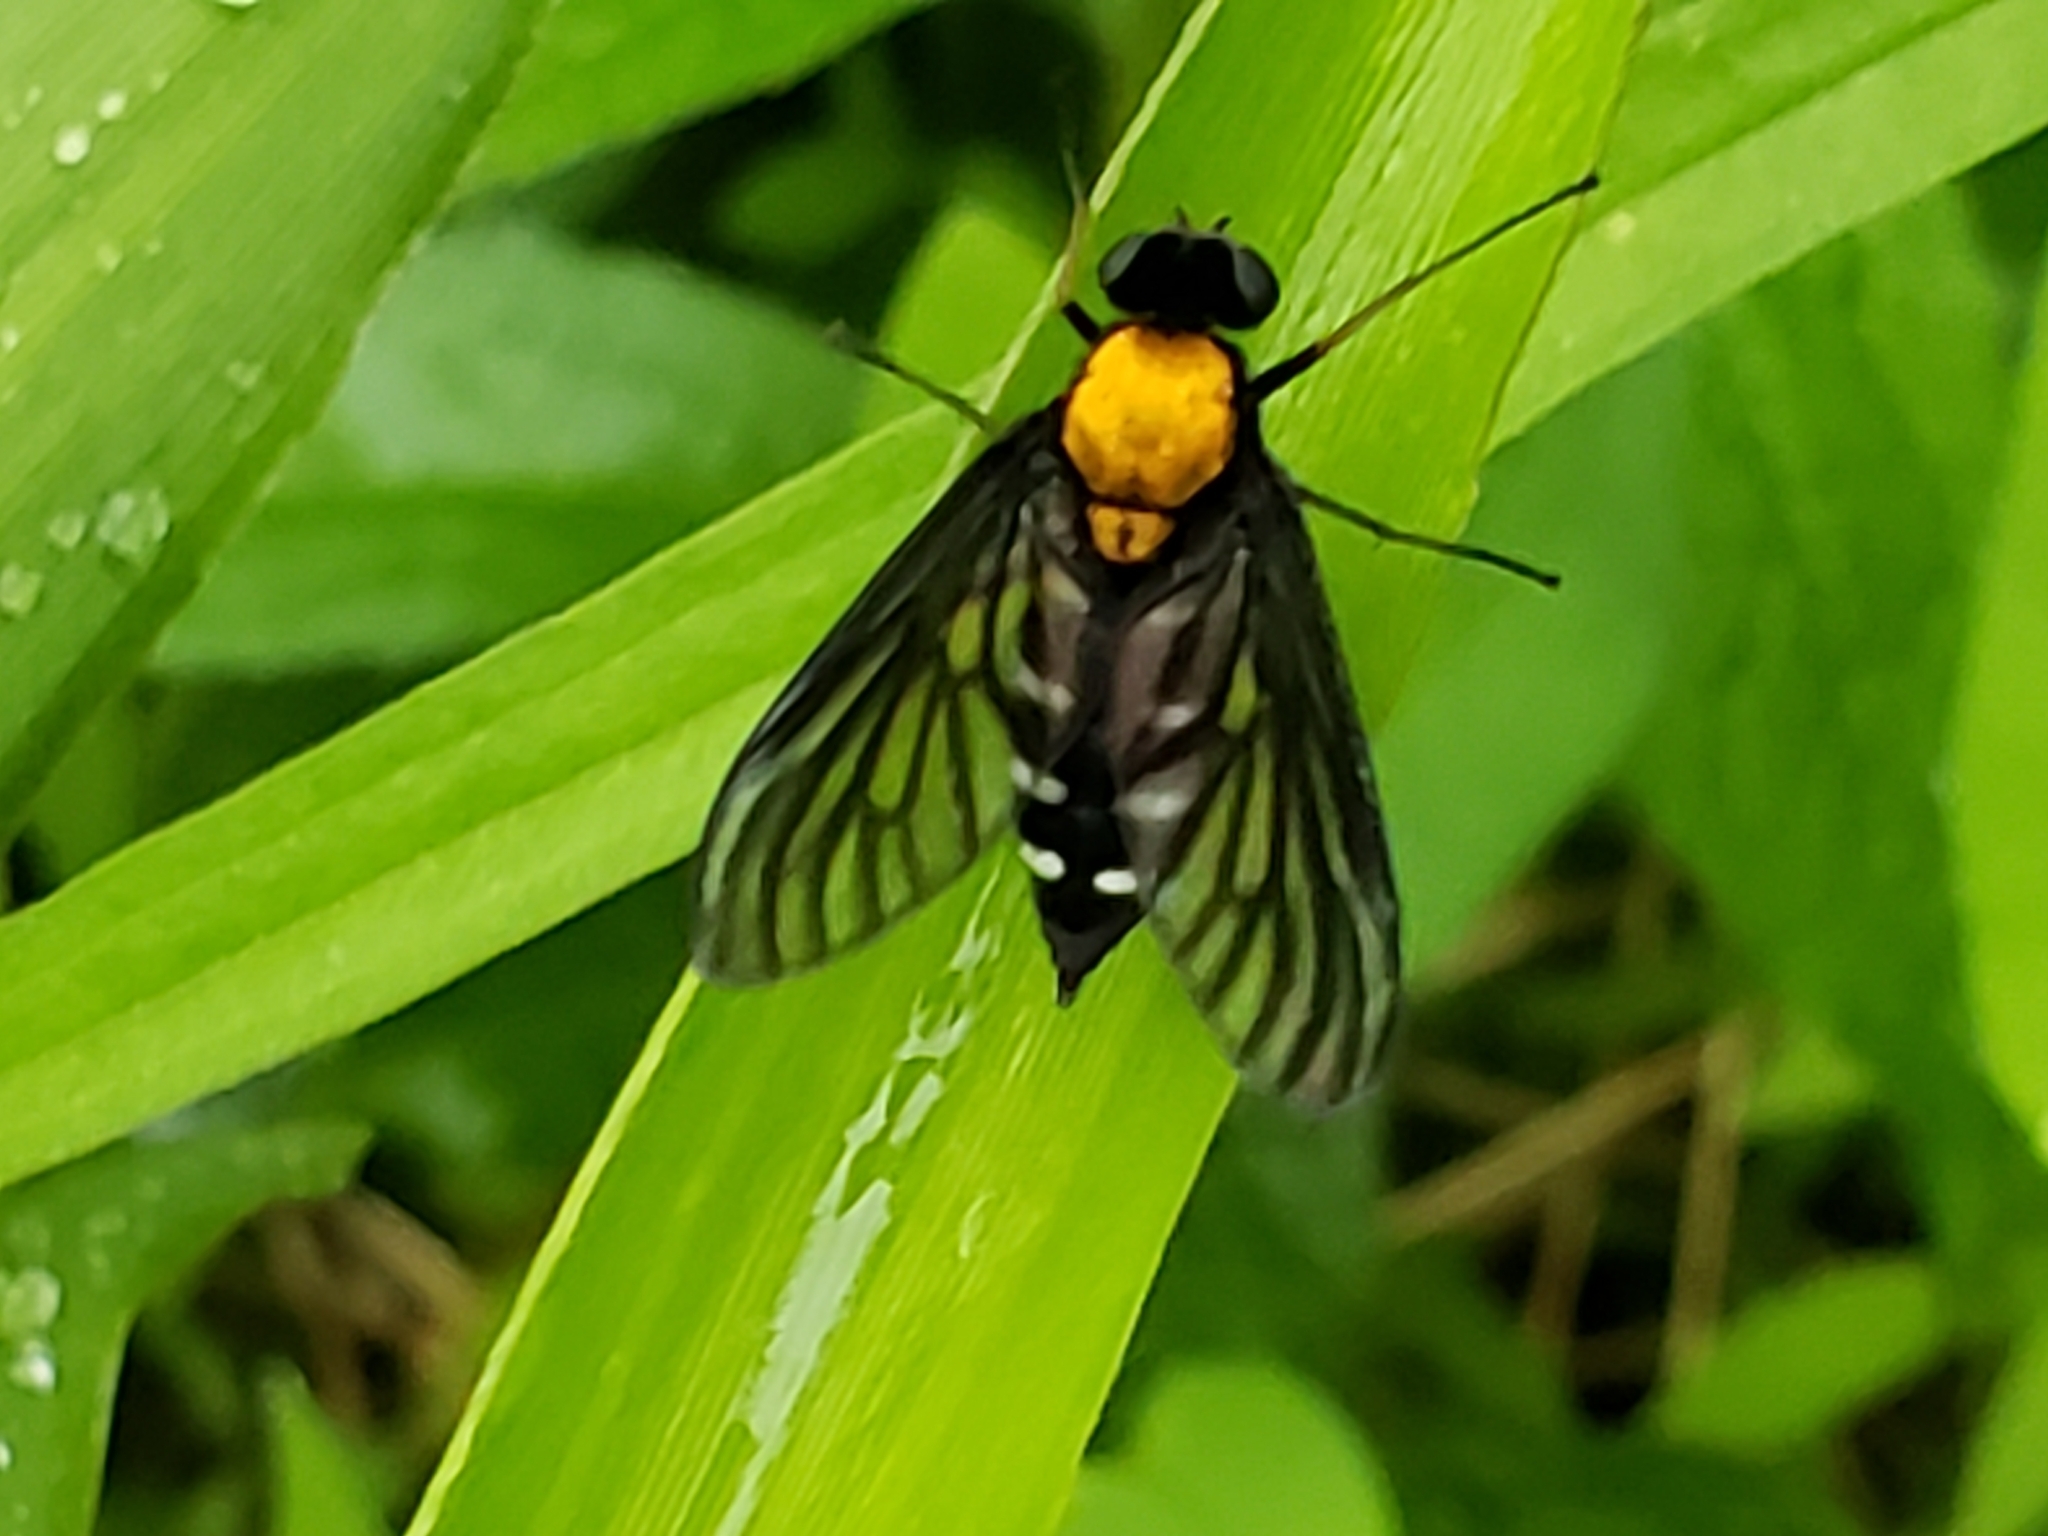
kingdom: Animalia
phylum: Arthropoda
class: Insecta
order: Diptera
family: Rhagionidae
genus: Chrysopilus
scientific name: Chrysopilus thoracicus
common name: Golden-backed snipe fly
